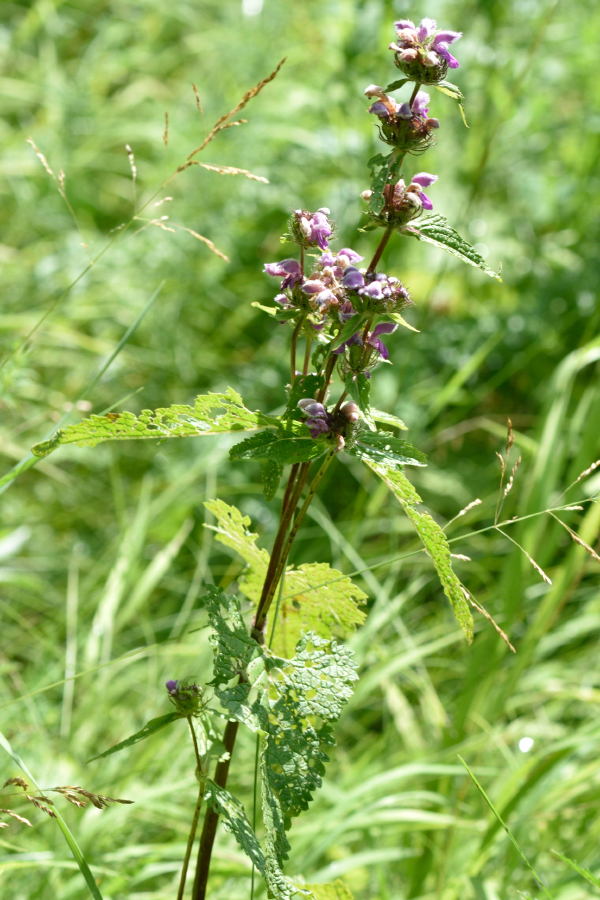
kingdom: Plantae
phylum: Tracheophyta
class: Magnoliopsida
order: Lamiales
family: Lamiaceae
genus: Phlomoides
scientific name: Phlomoides tuberosa
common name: Tuberous jerusalem sage
